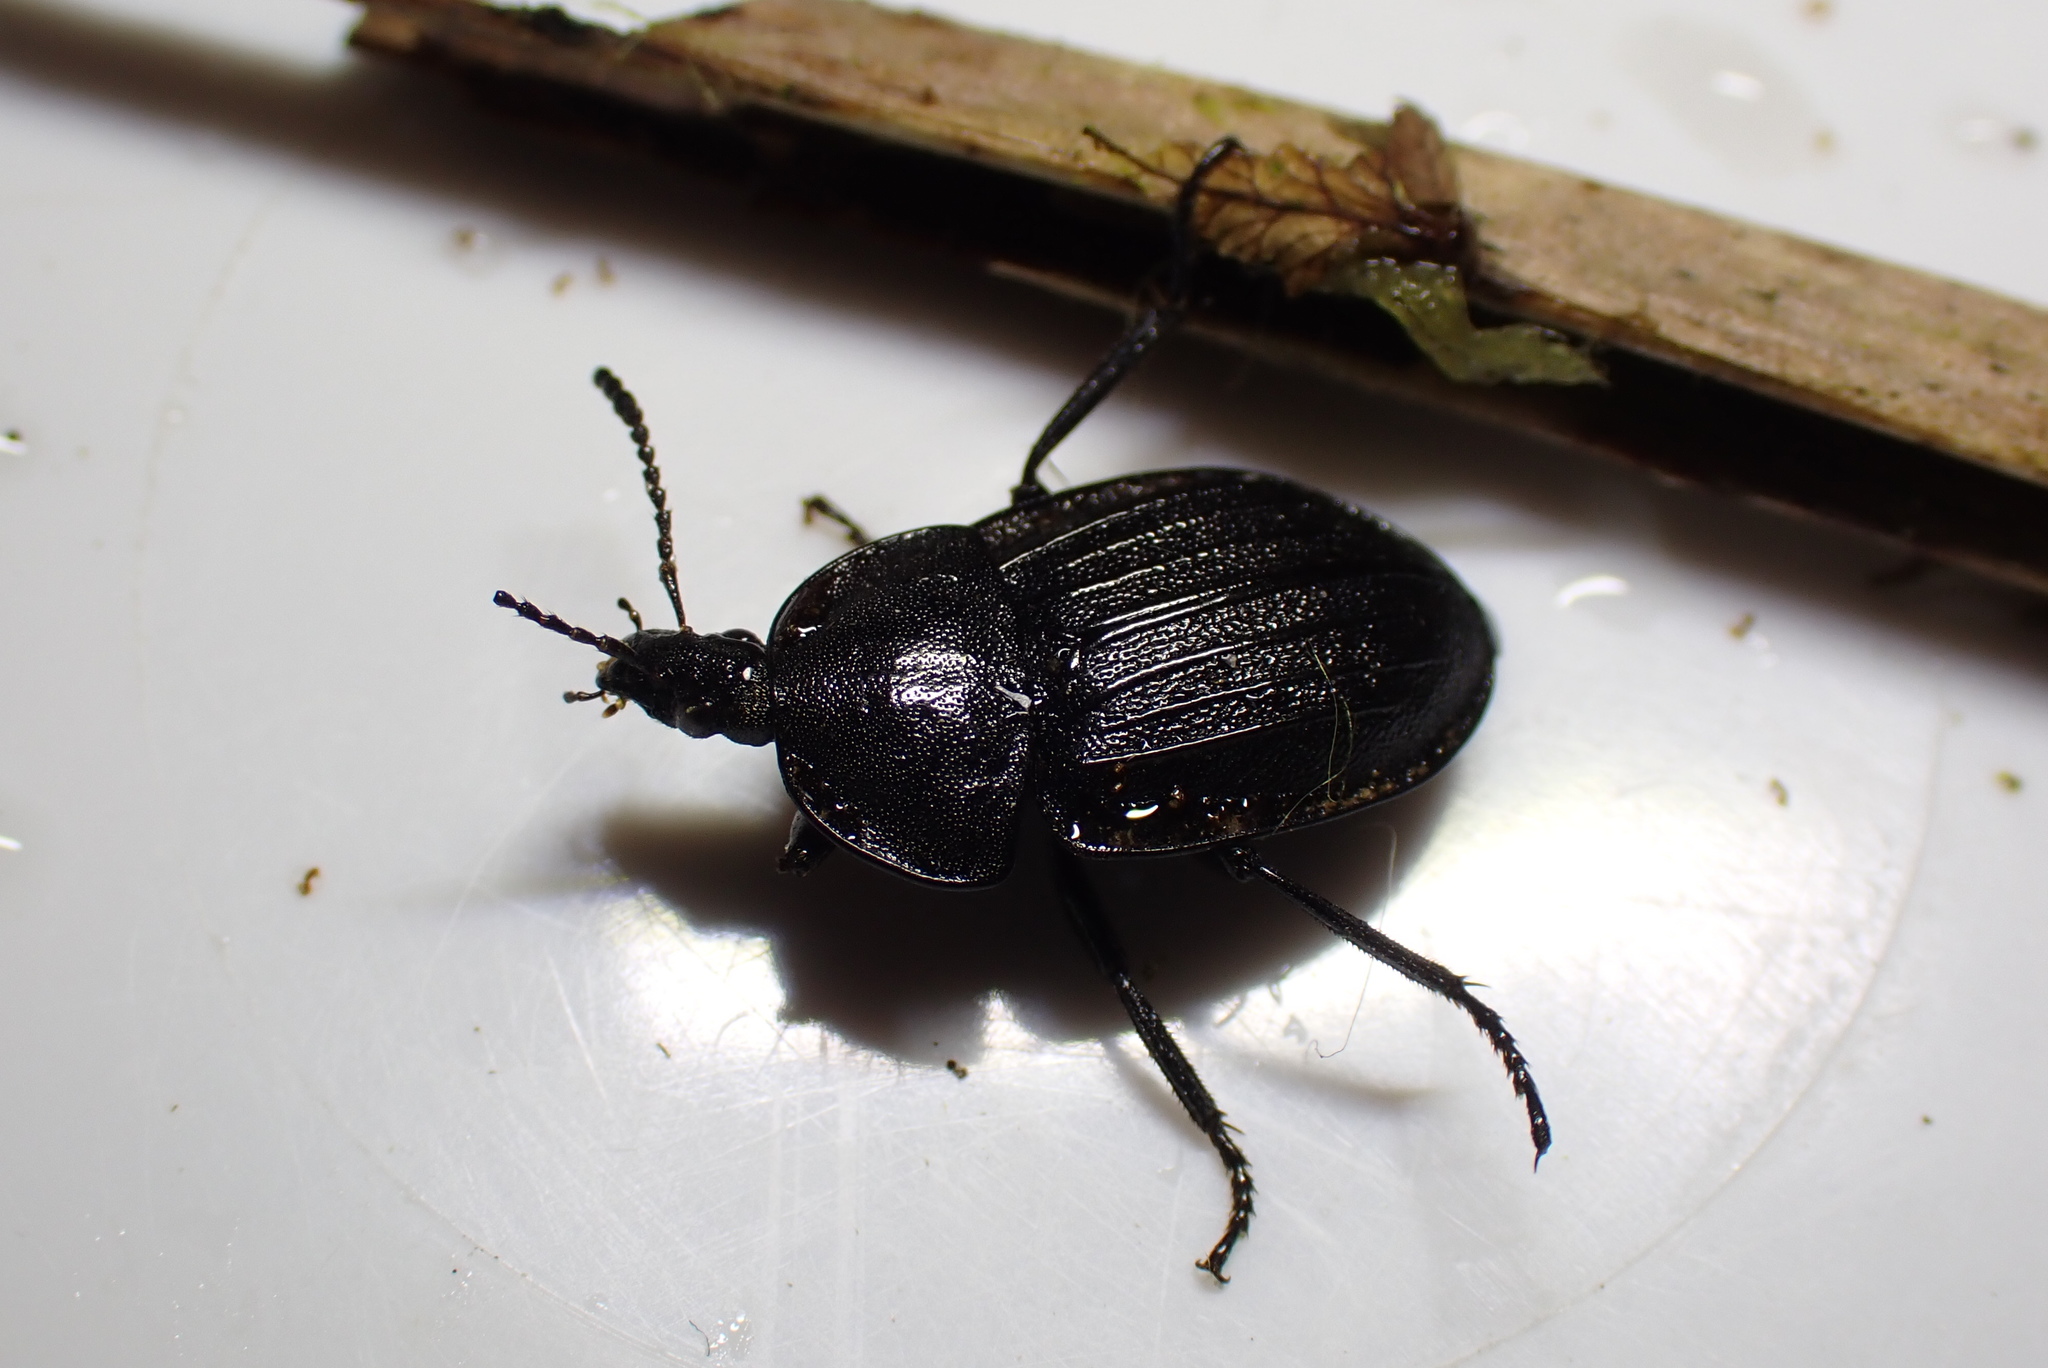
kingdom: Animalia
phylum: Arthropoda
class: Insecta
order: Coleoptera
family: Staphylinidae
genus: Silpha
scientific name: Silpha atrata
